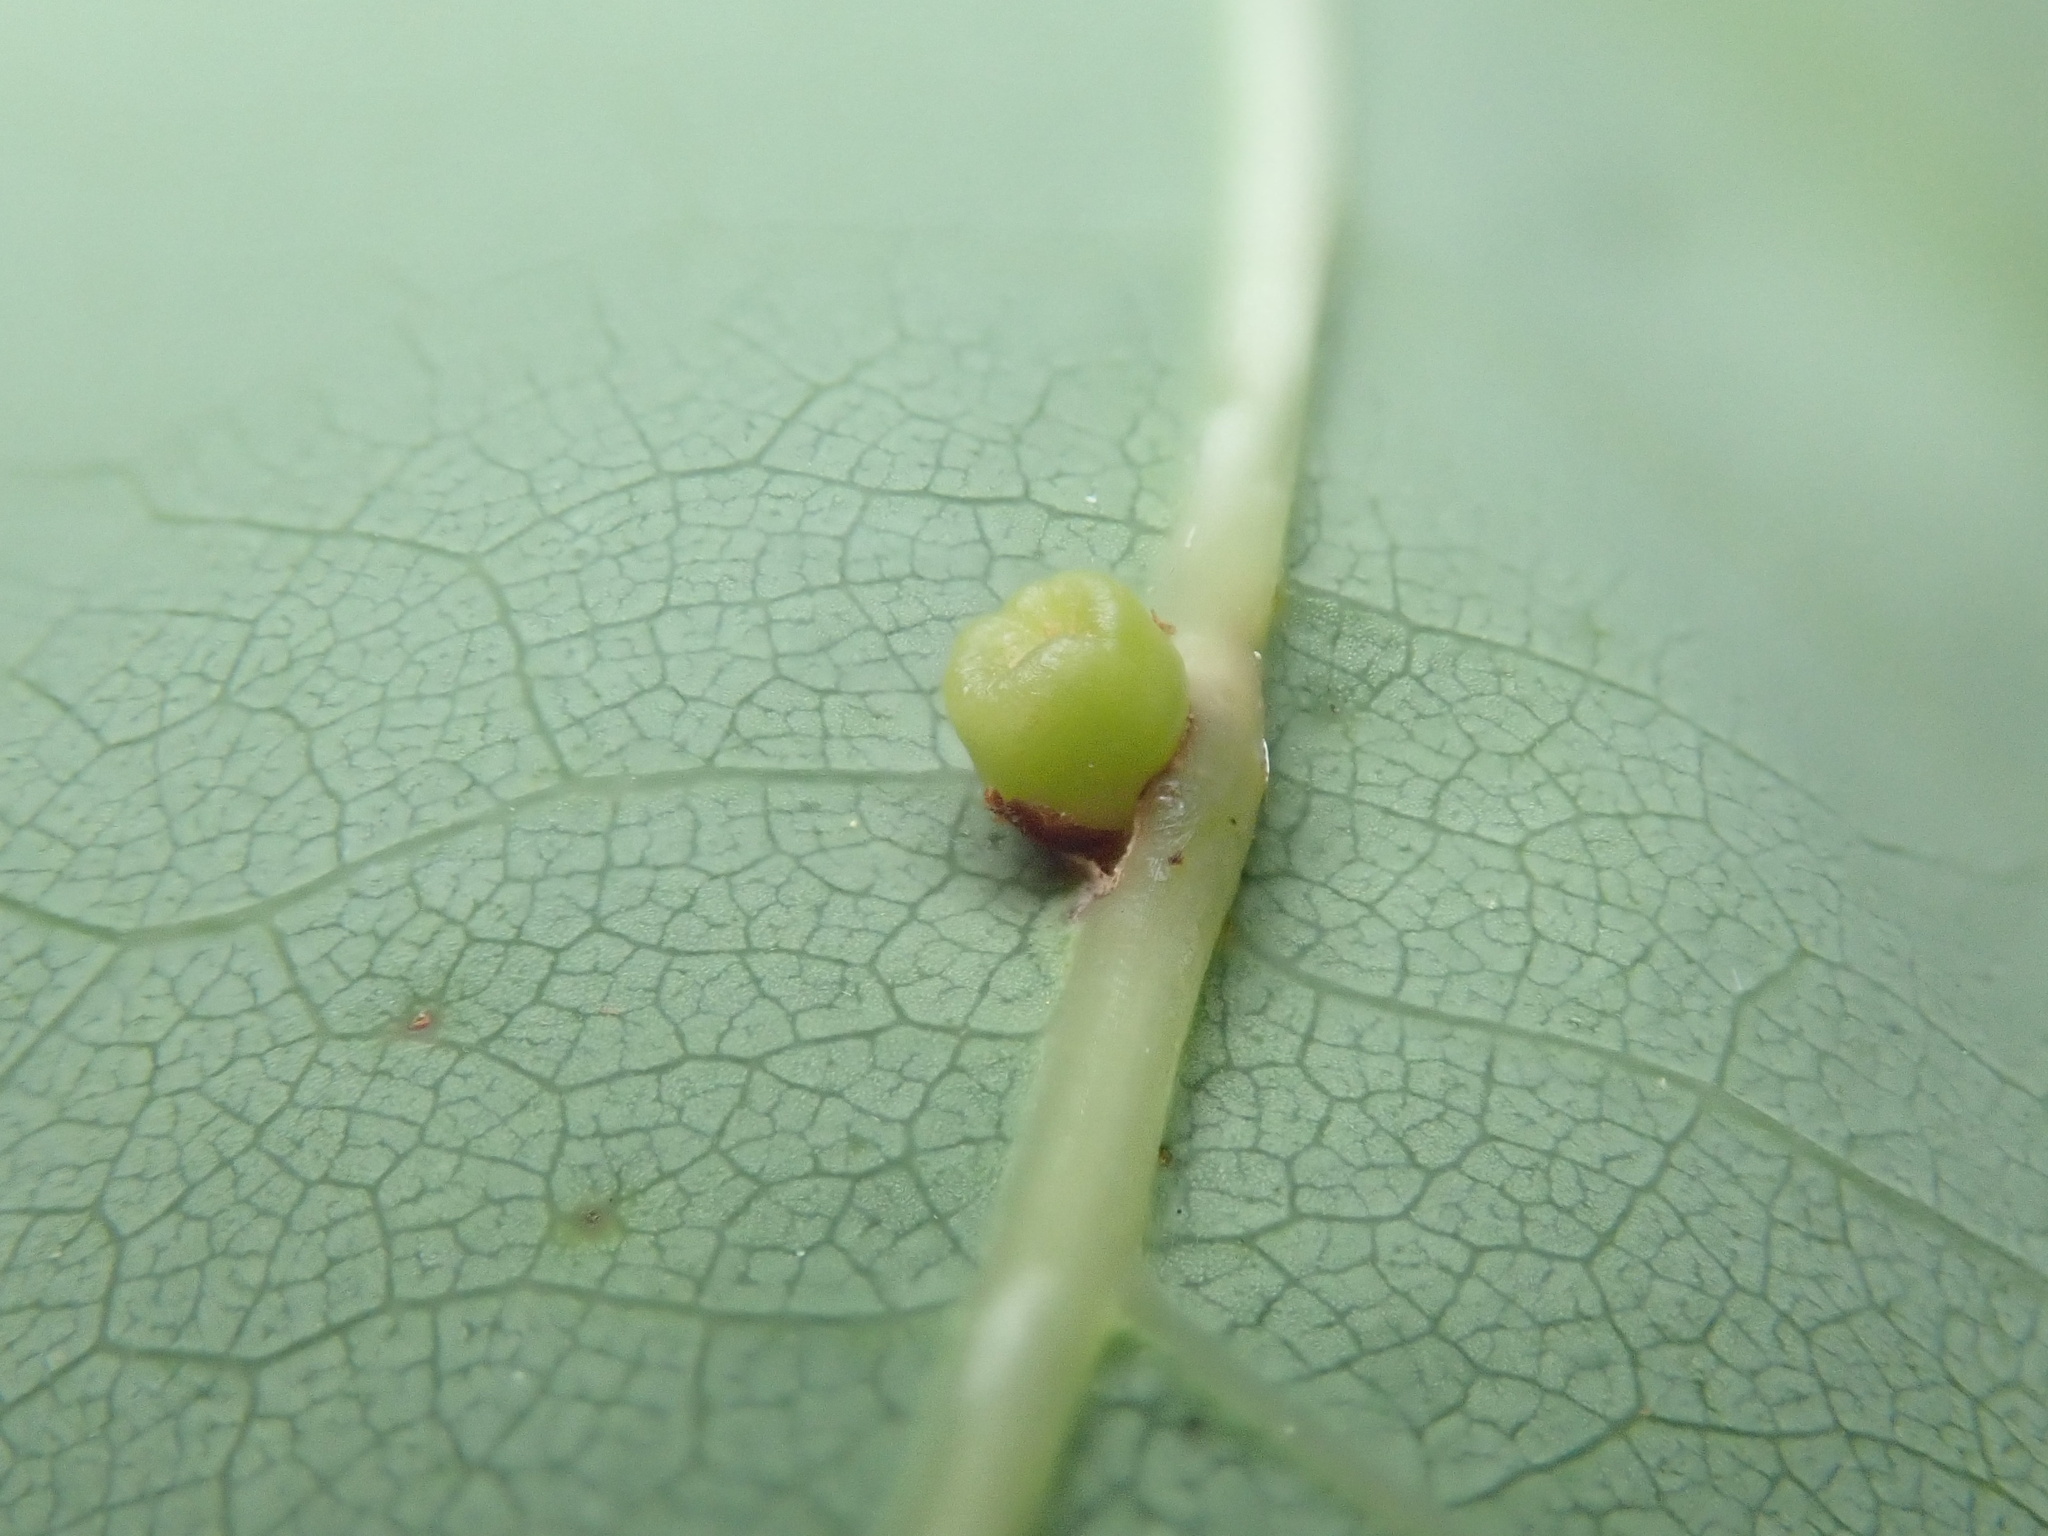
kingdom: Animalia
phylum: Arthropoda
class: Insecta
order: Hymenoptera
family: Cynipidae
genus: Kokkocynips
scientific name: Kokkocynips rileyi
